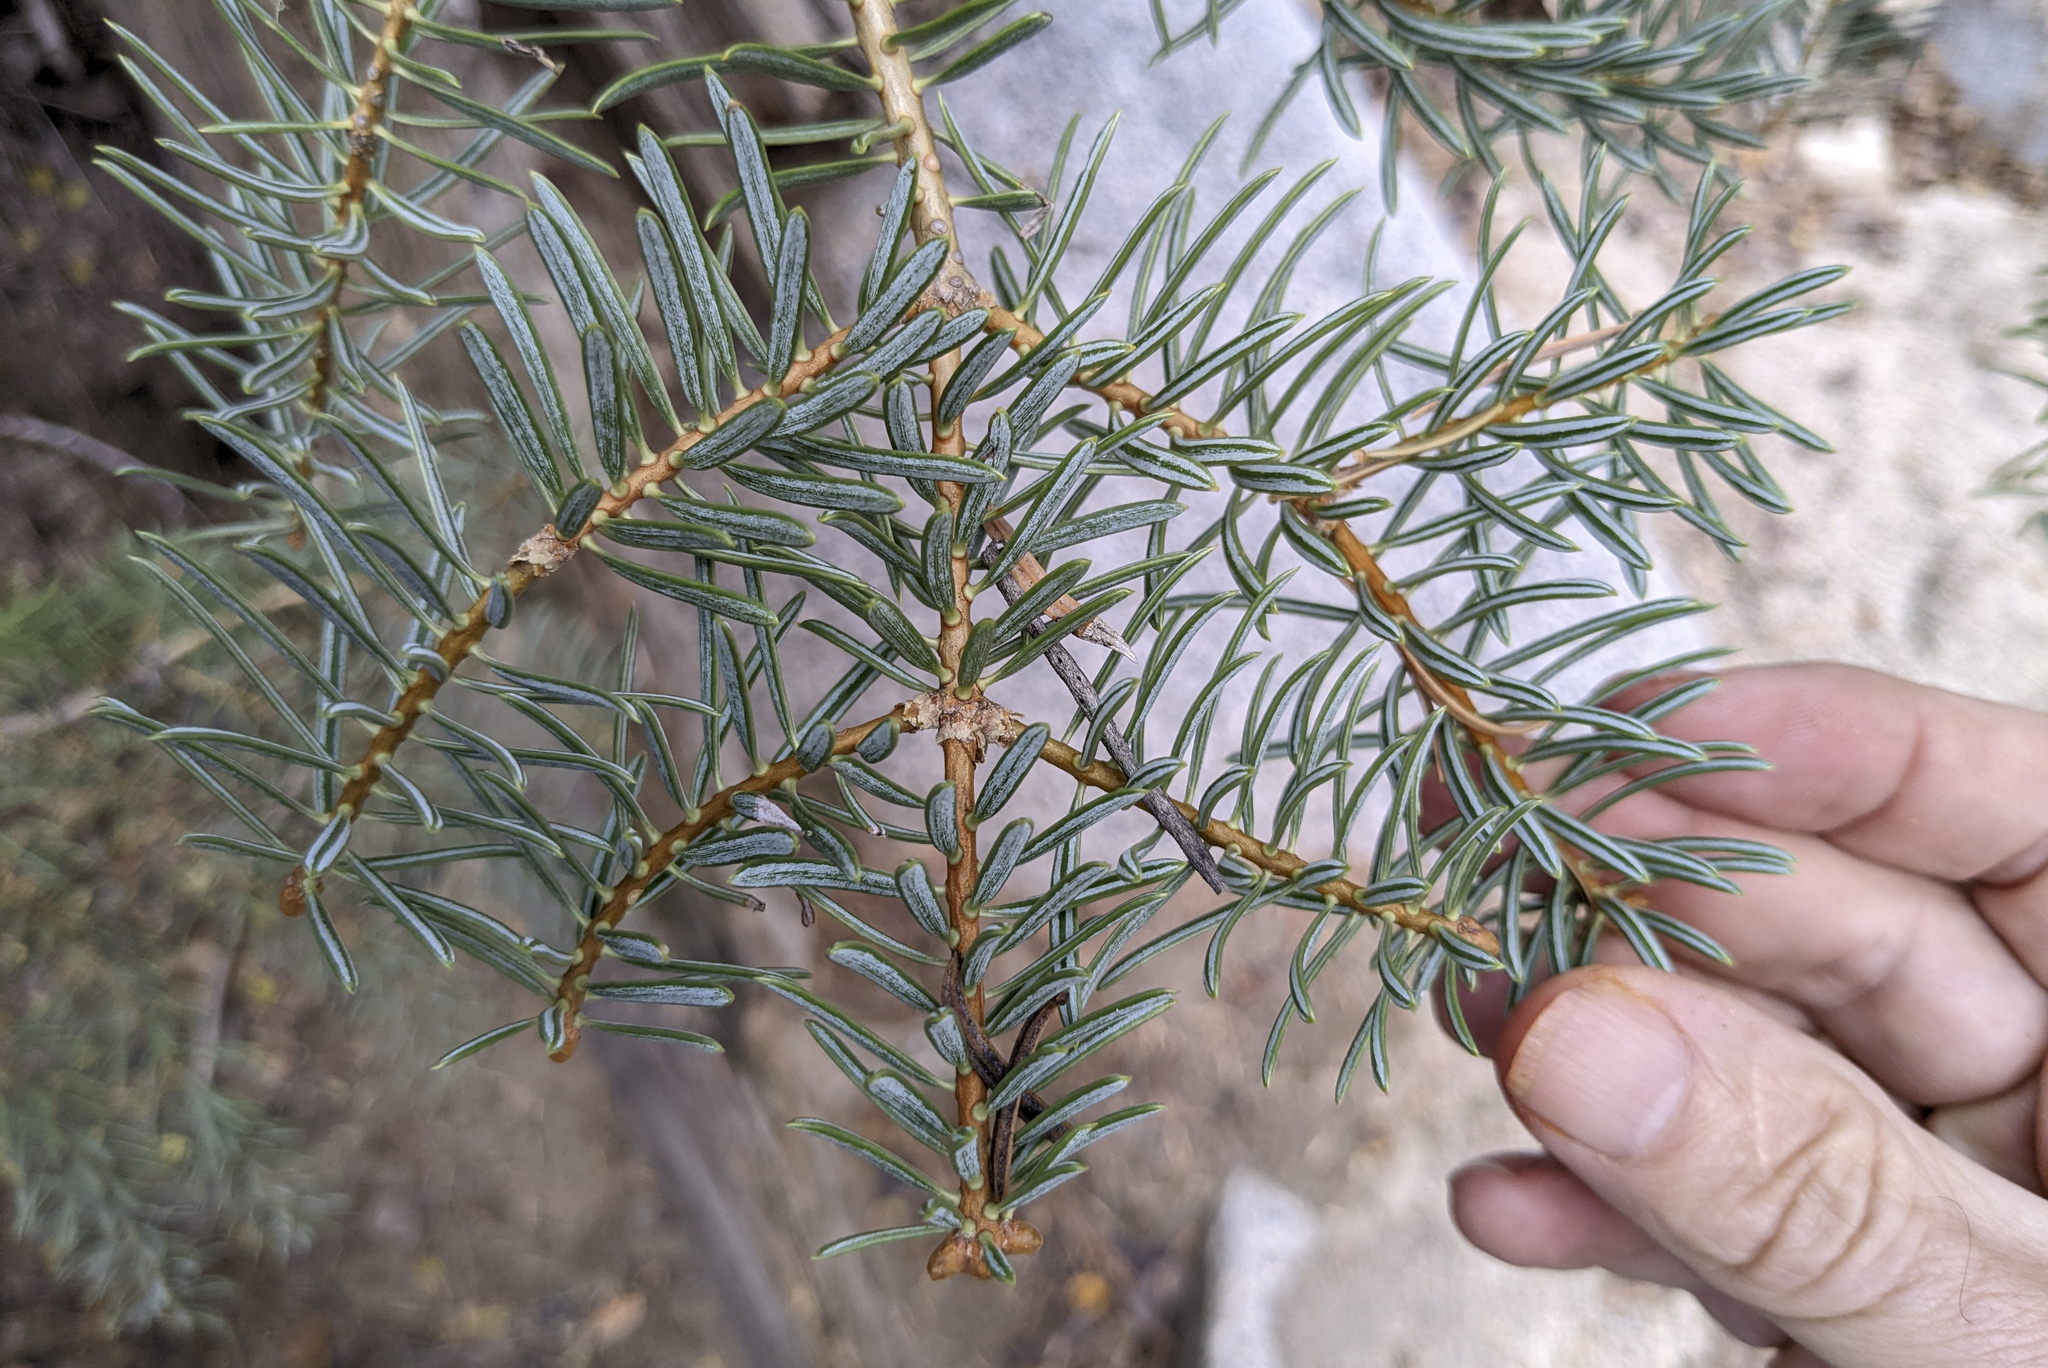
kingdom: Plantae
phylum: Tracheophyta
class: Pinopsida
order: Pinales
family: Pinaceae
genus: Abies
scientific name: Abies concolor
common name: Colorado fir
